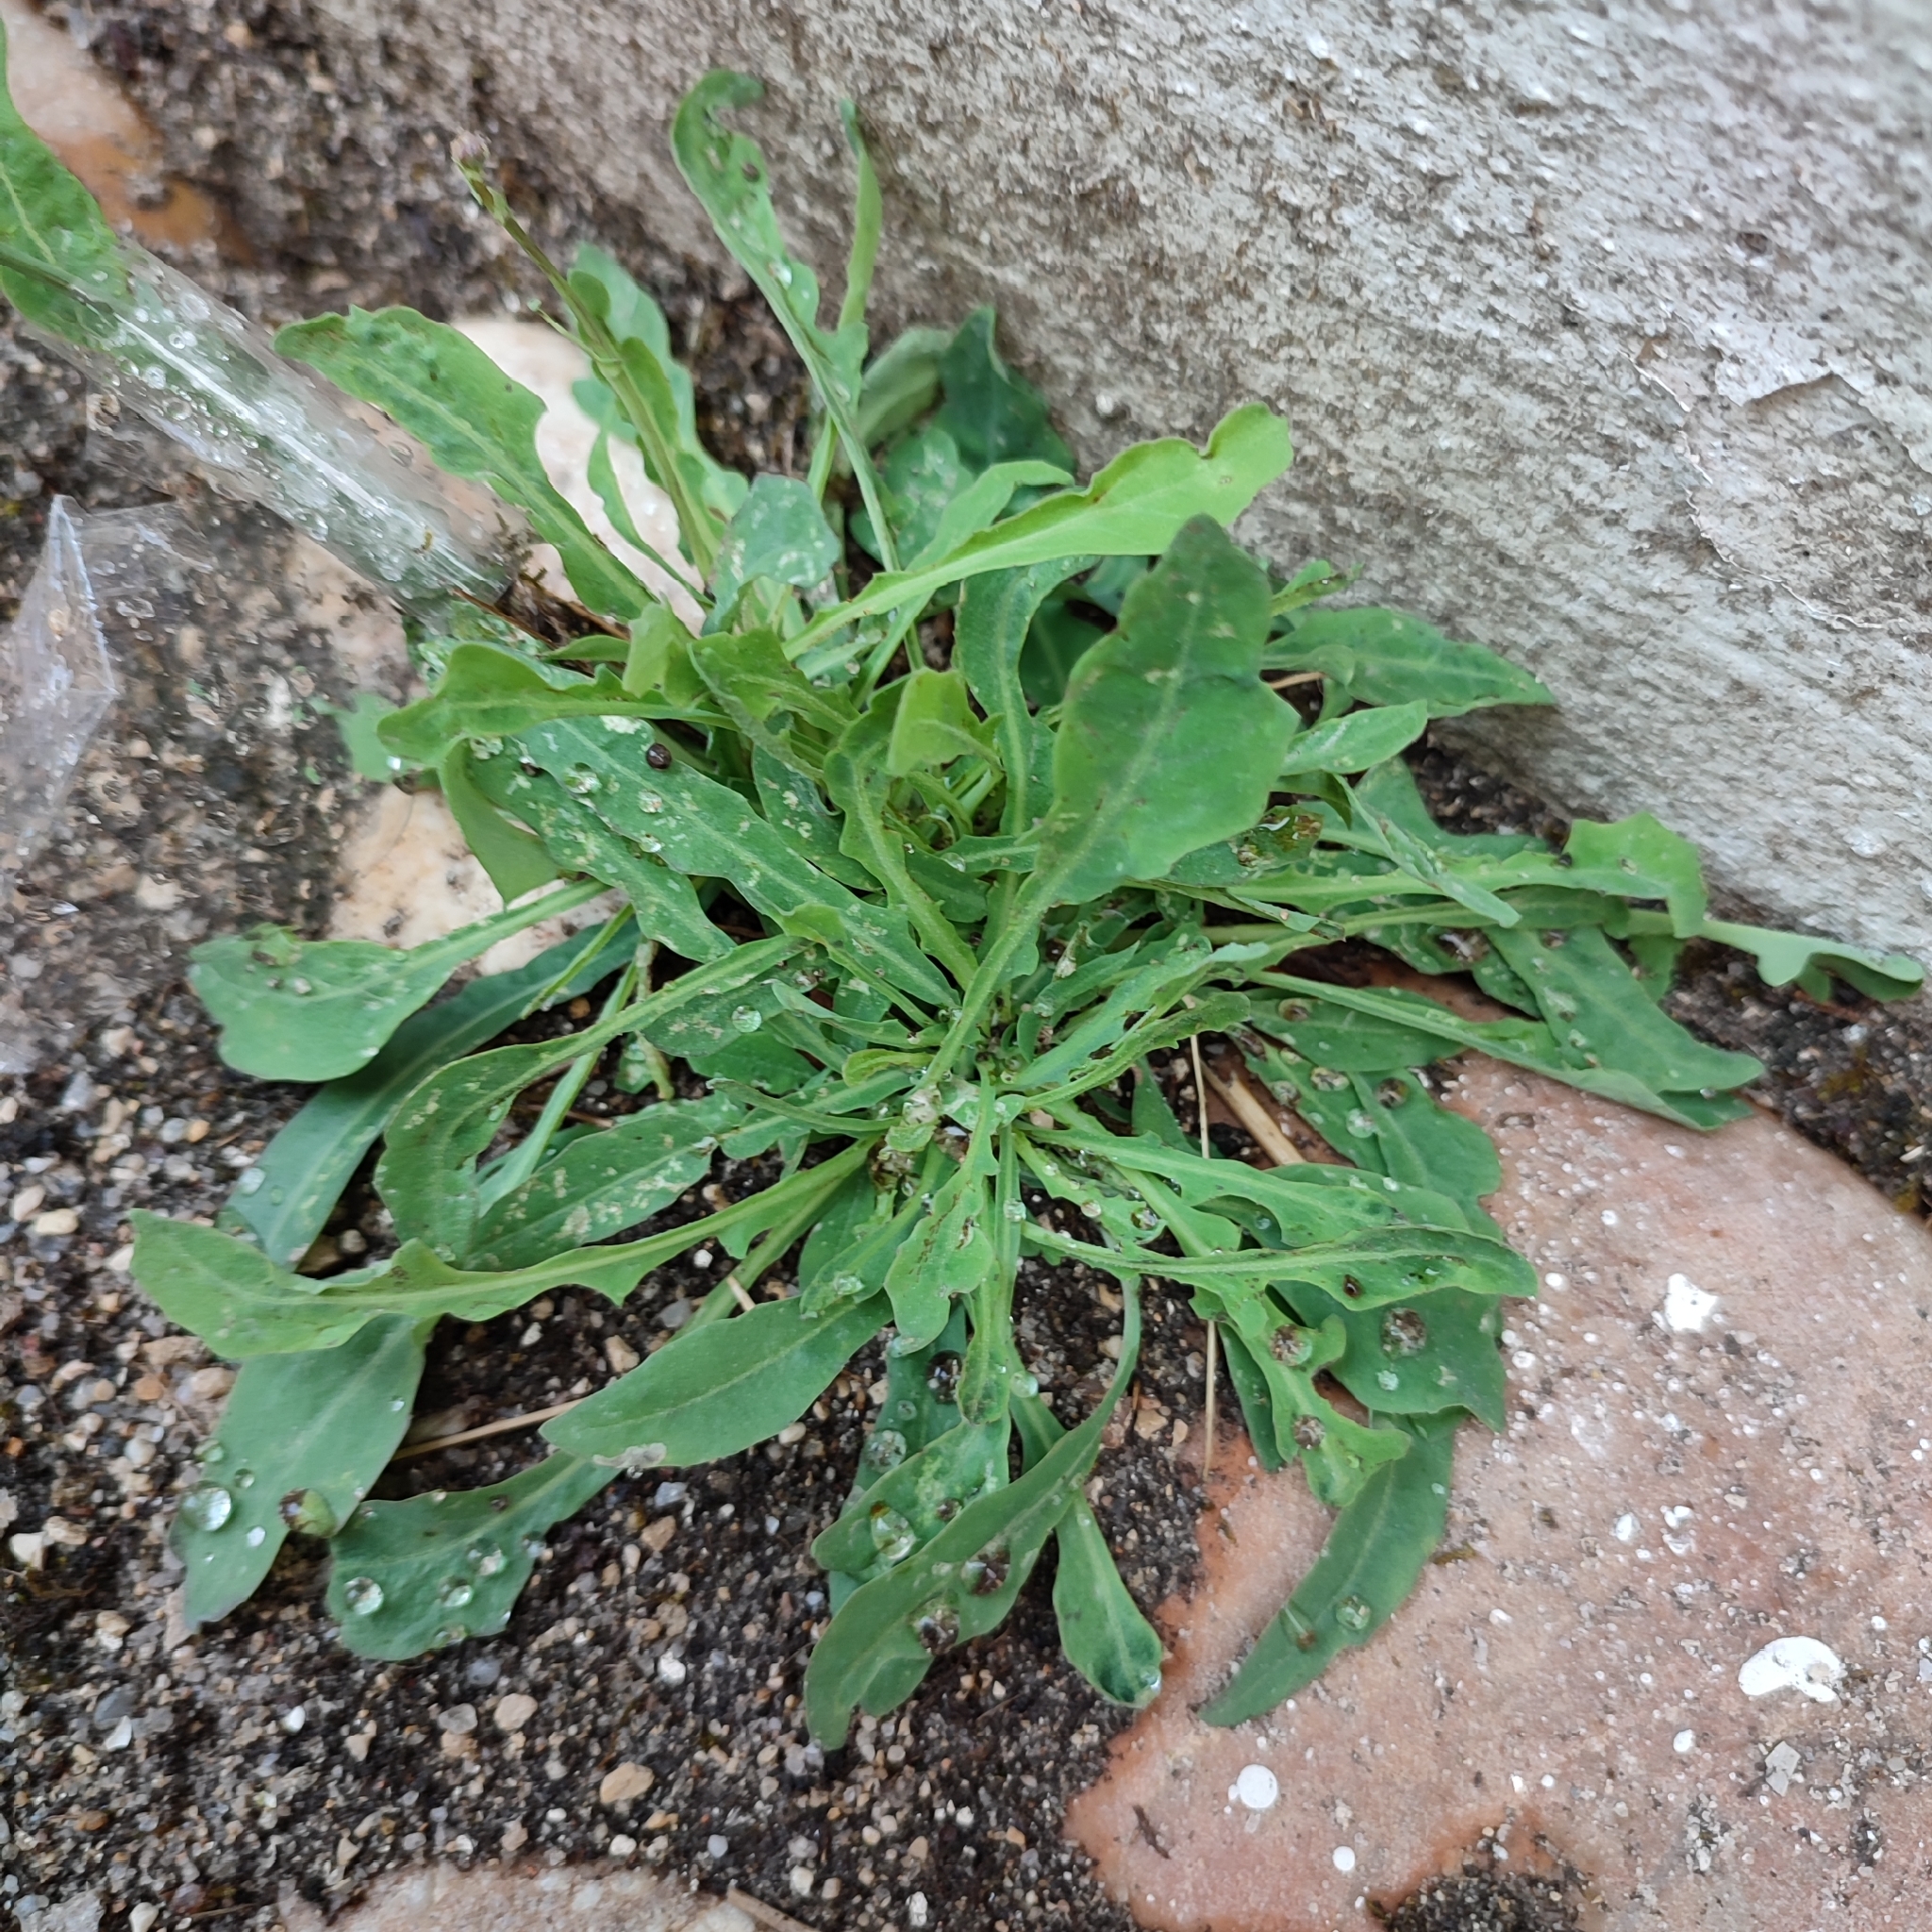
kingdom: Plantae
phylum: Tracheophyta
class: Magnoliopsida
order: Asterales
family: Asteraceae
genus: Reichardia
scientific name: Reichardia picroides
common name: Common brighteyes
